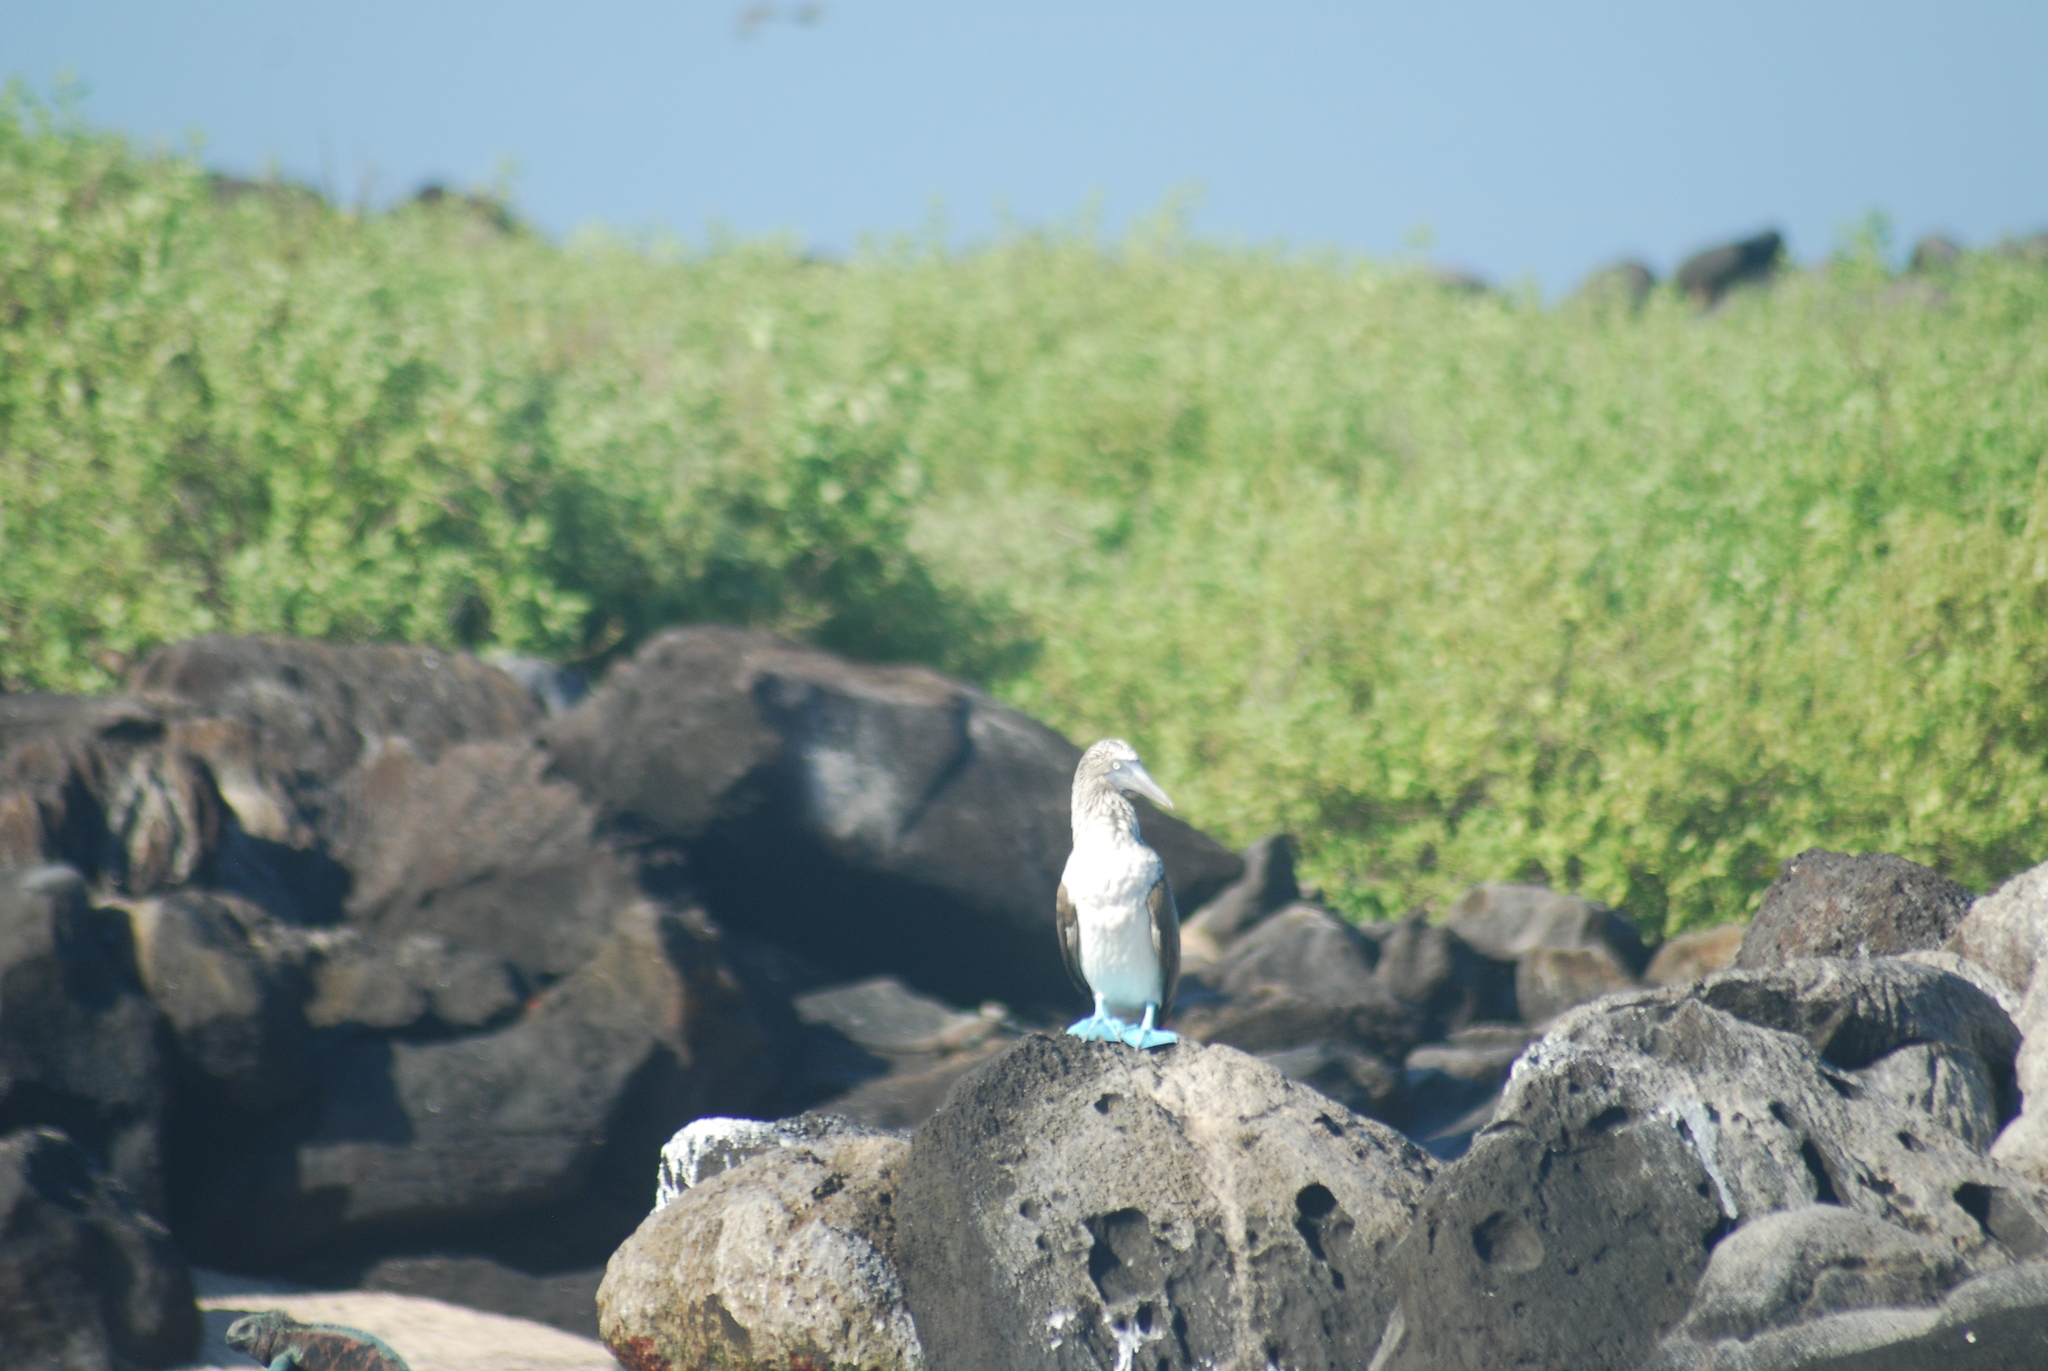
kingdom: Animalia
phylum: Chordata
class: Aves
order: Suliformes
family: Sulidae
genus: Sula
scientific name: Sula nebouxii
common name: Blue-footed booby
